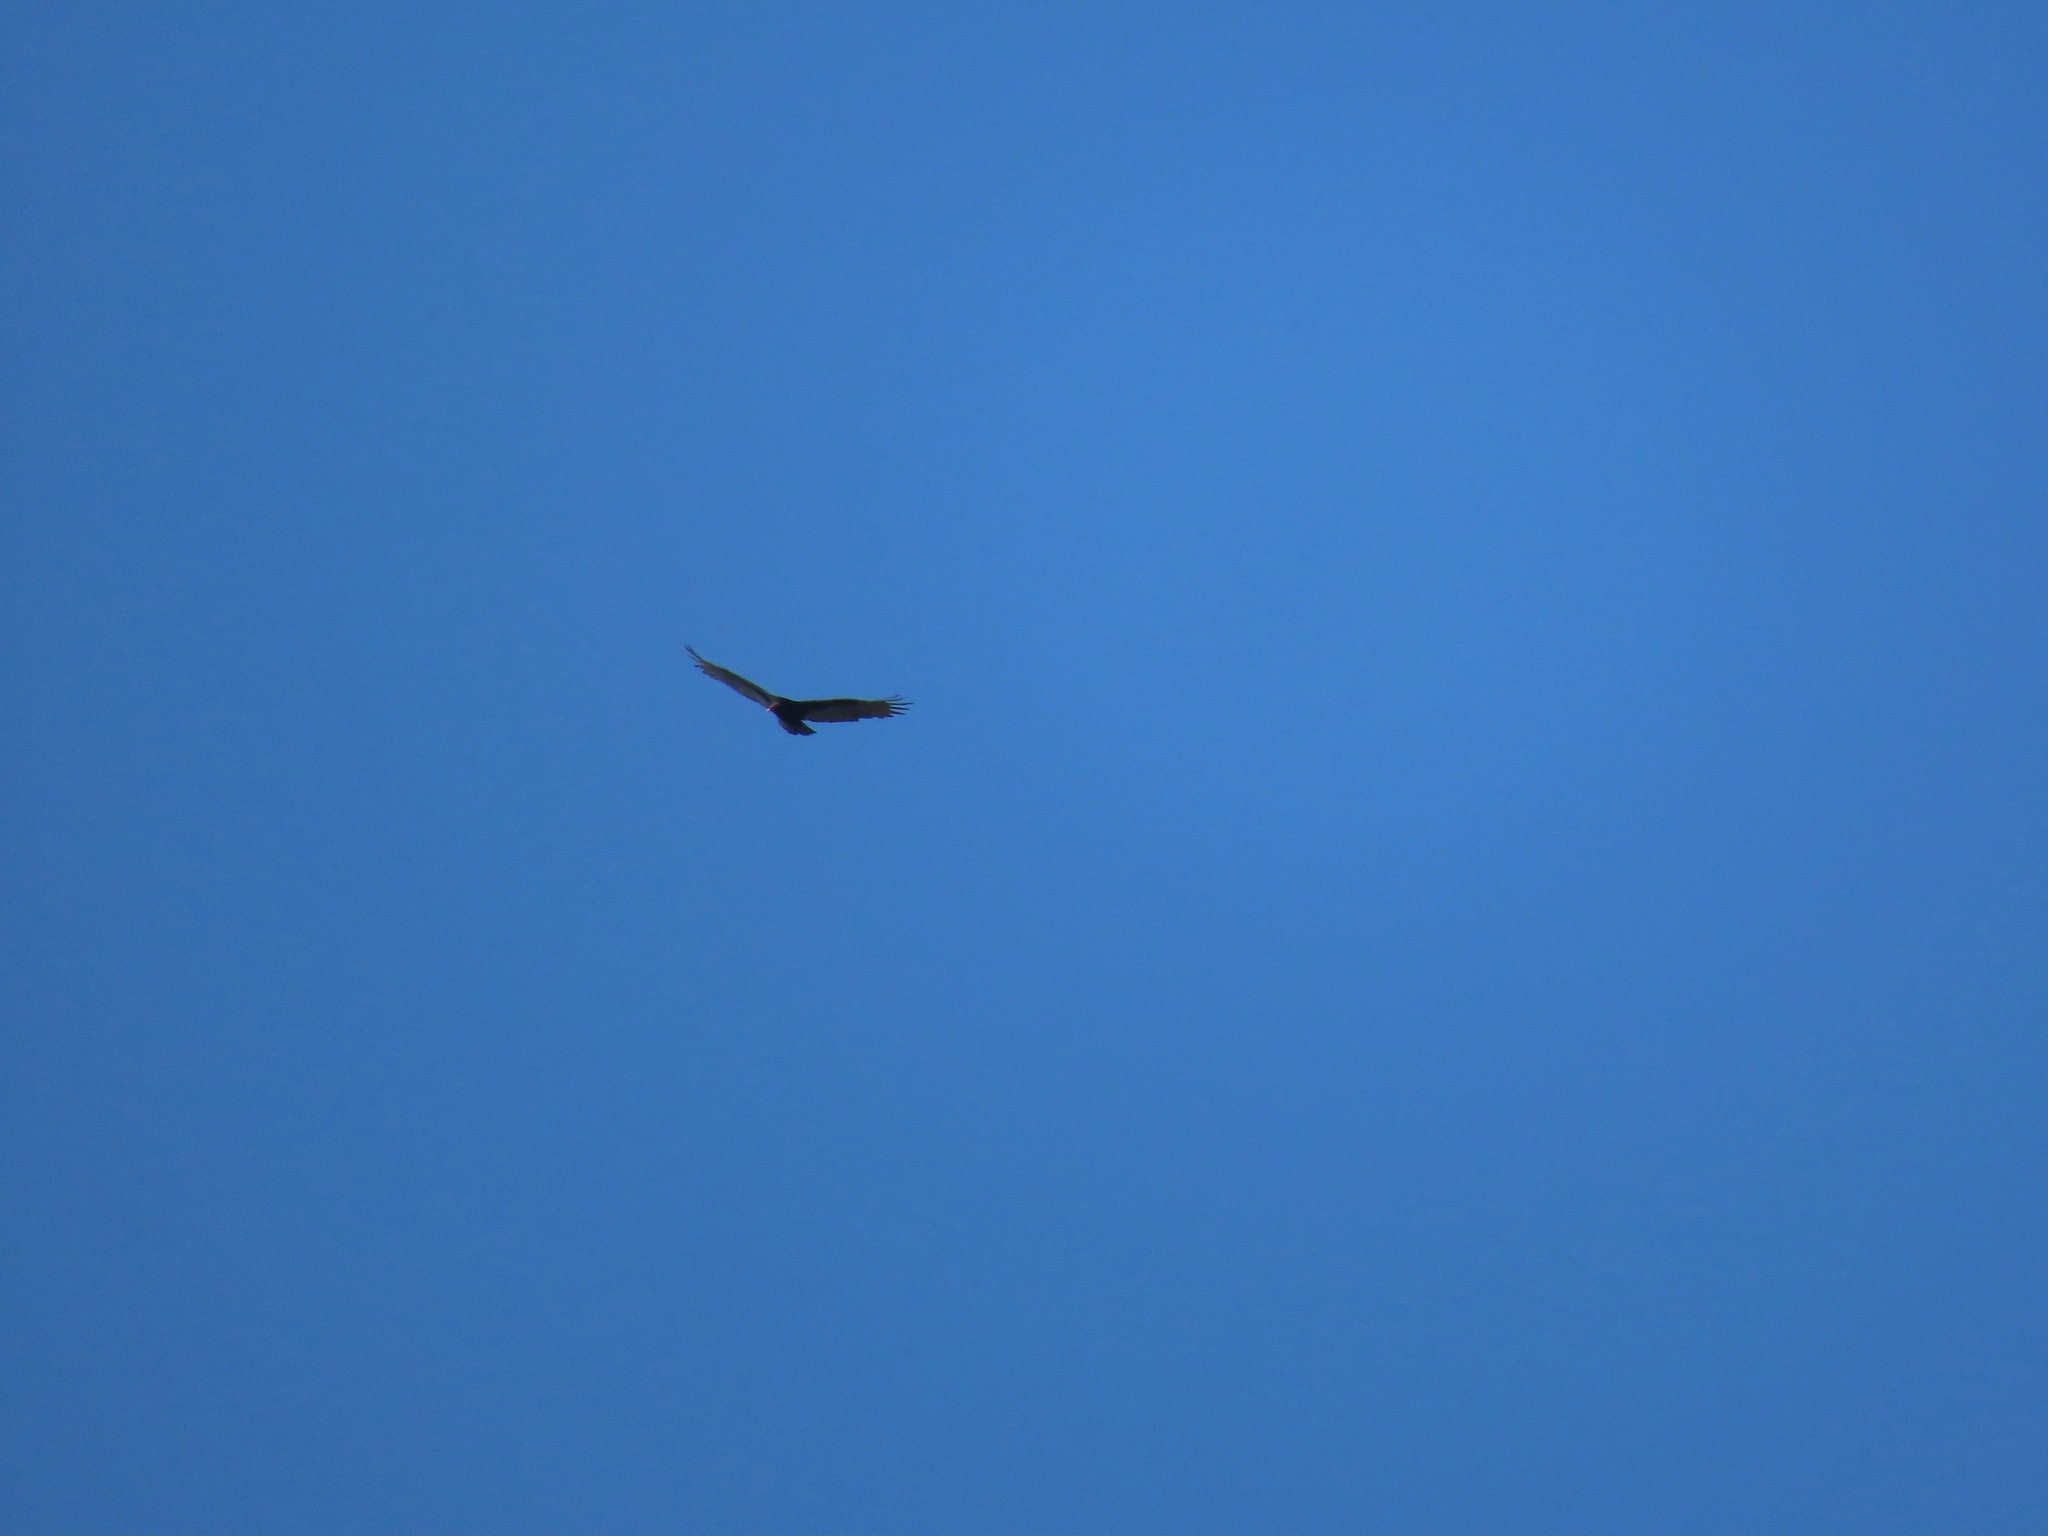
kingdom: Animalia
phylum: Chordata
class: Aves
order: Accipitriformes
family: Cathartidae
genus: Cathartes
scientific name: Cathartes aura
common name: Turkey vulture
